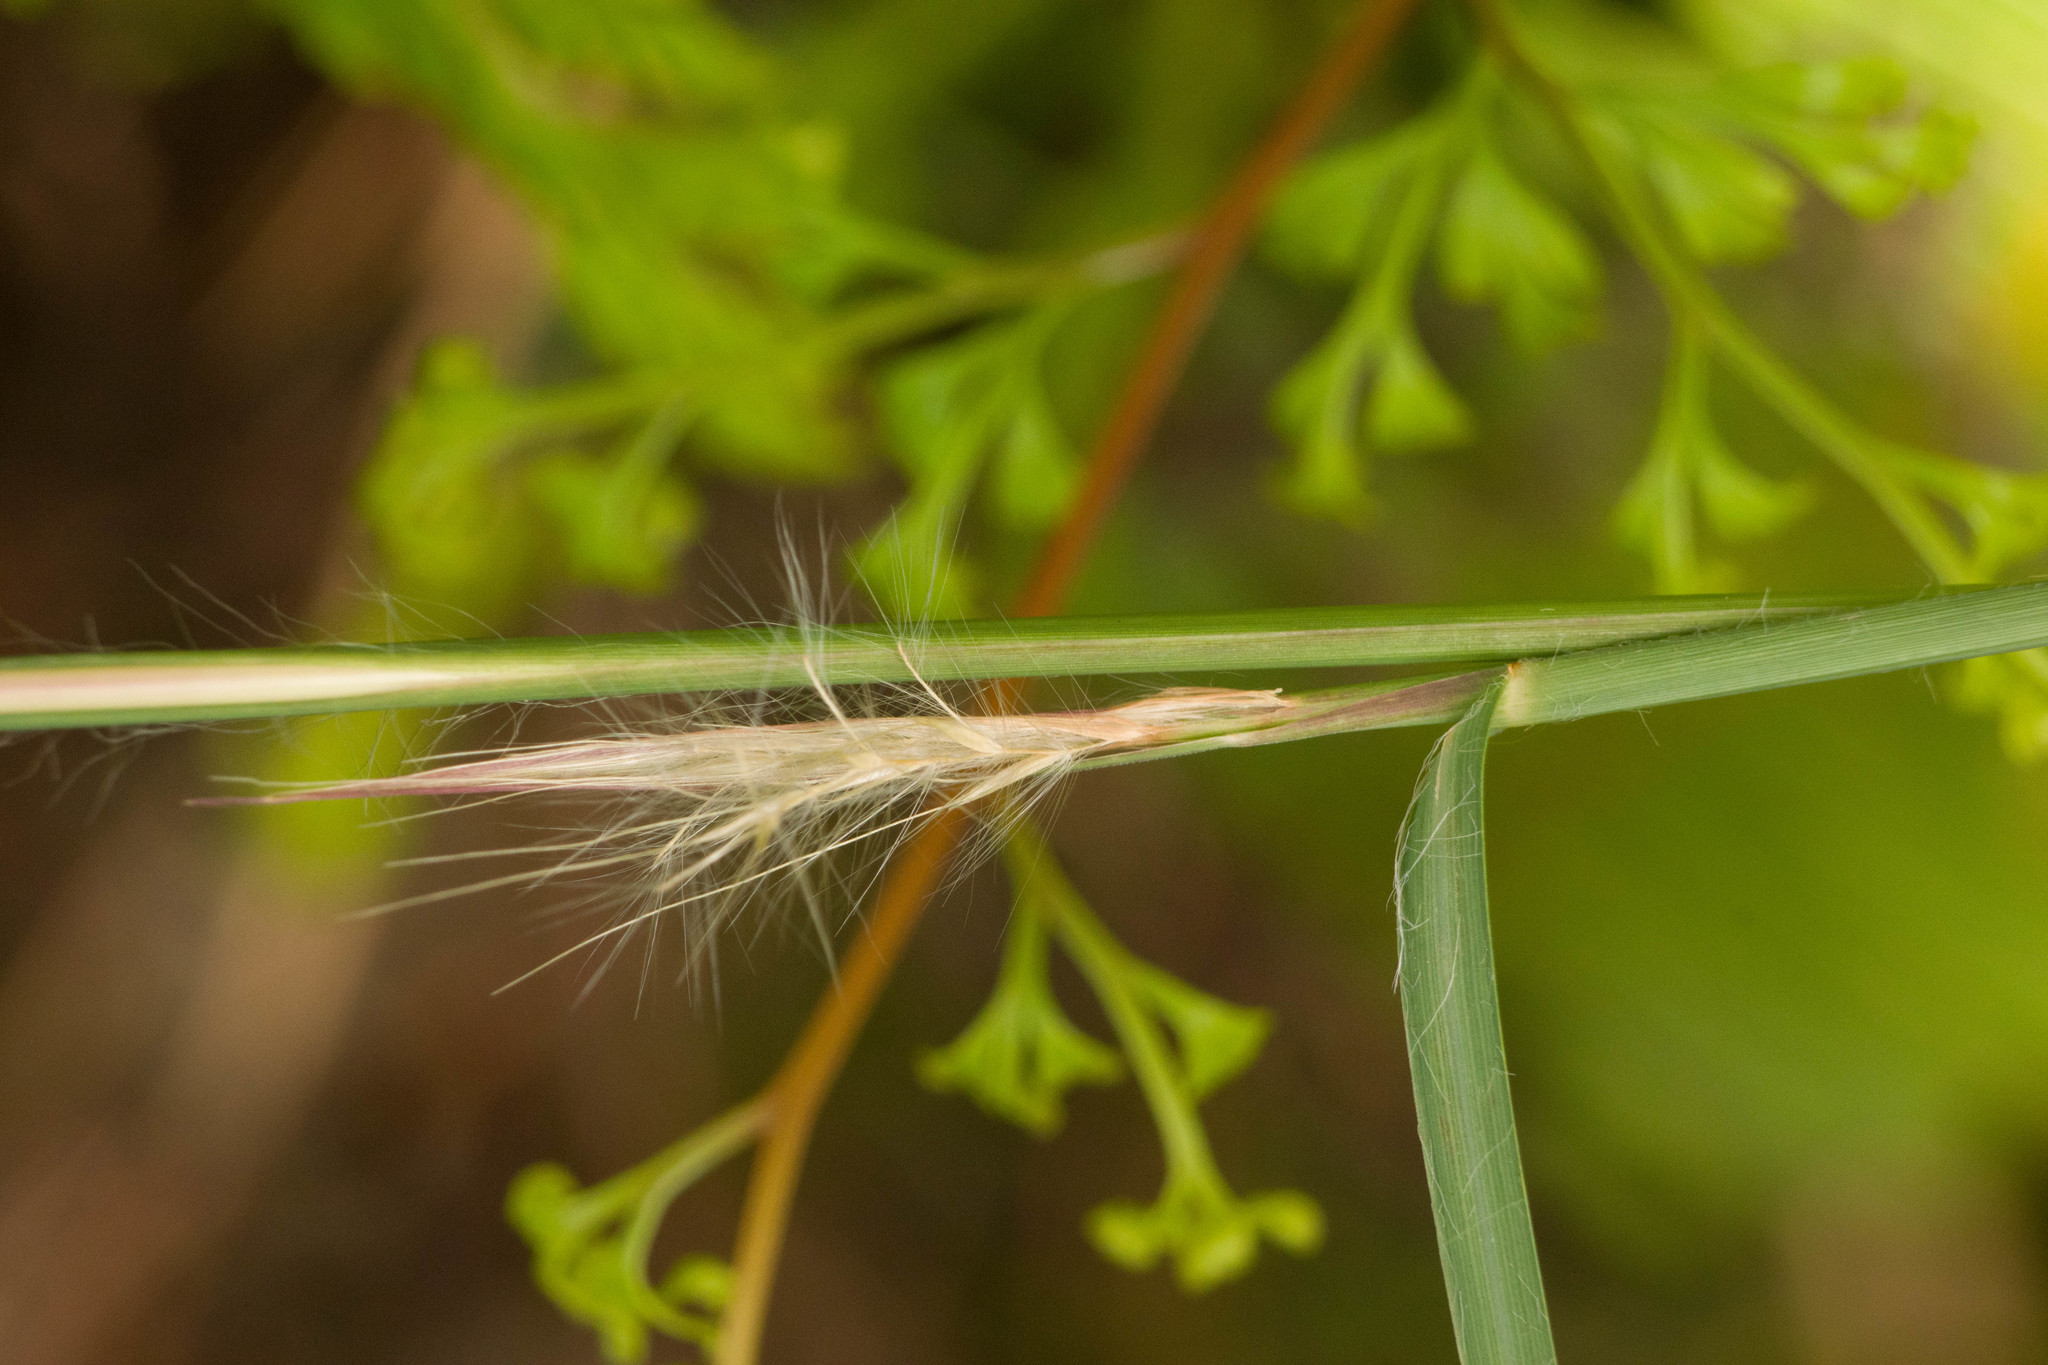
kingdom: Plantae
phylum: Tracheophyta
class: Liliopsida
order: Poales
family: Poaceae
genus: Andropogon
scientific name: Andropogon virginicus
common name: Broomsedge bluestem
